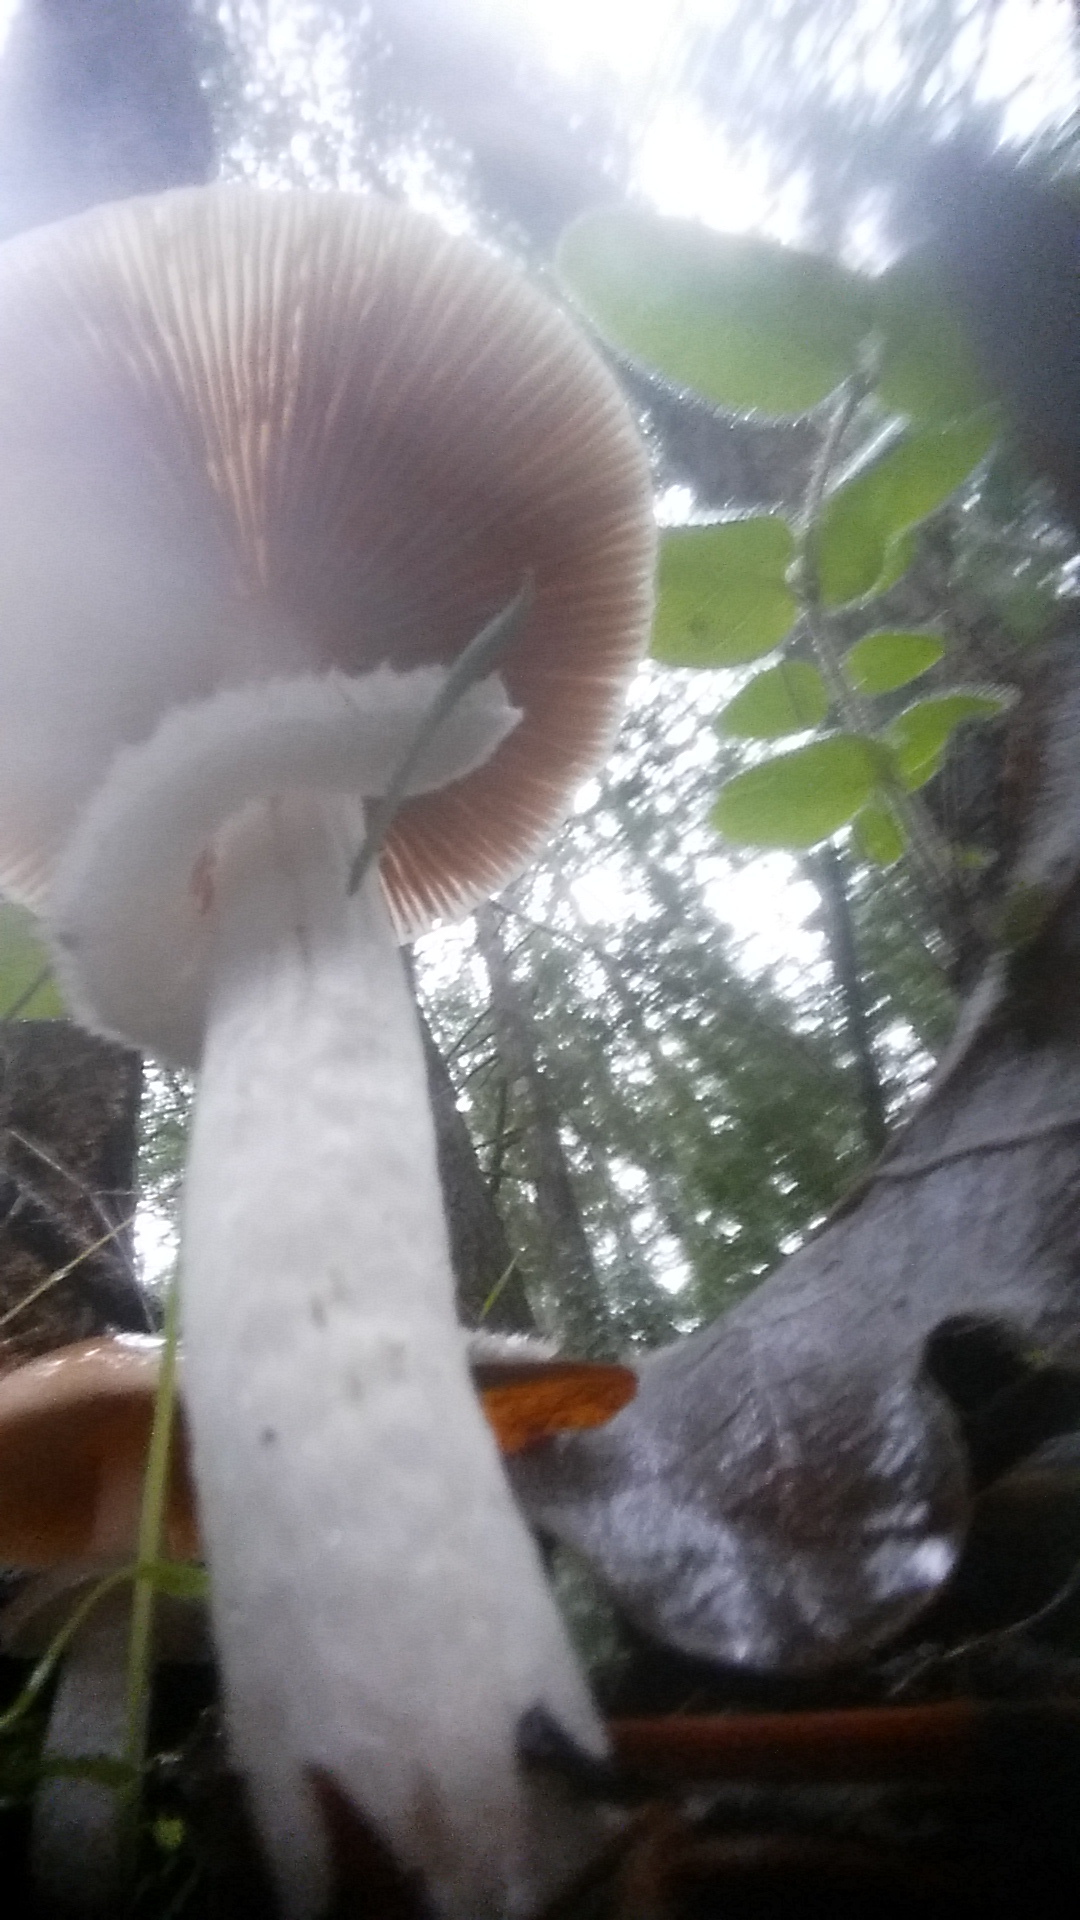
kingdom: Fungi
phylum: Basidiomycota
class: Agaricomycetes
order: Agaricales
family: Psathyrellaceae
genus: Psathyrella
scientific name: Psathyrella longistriata
